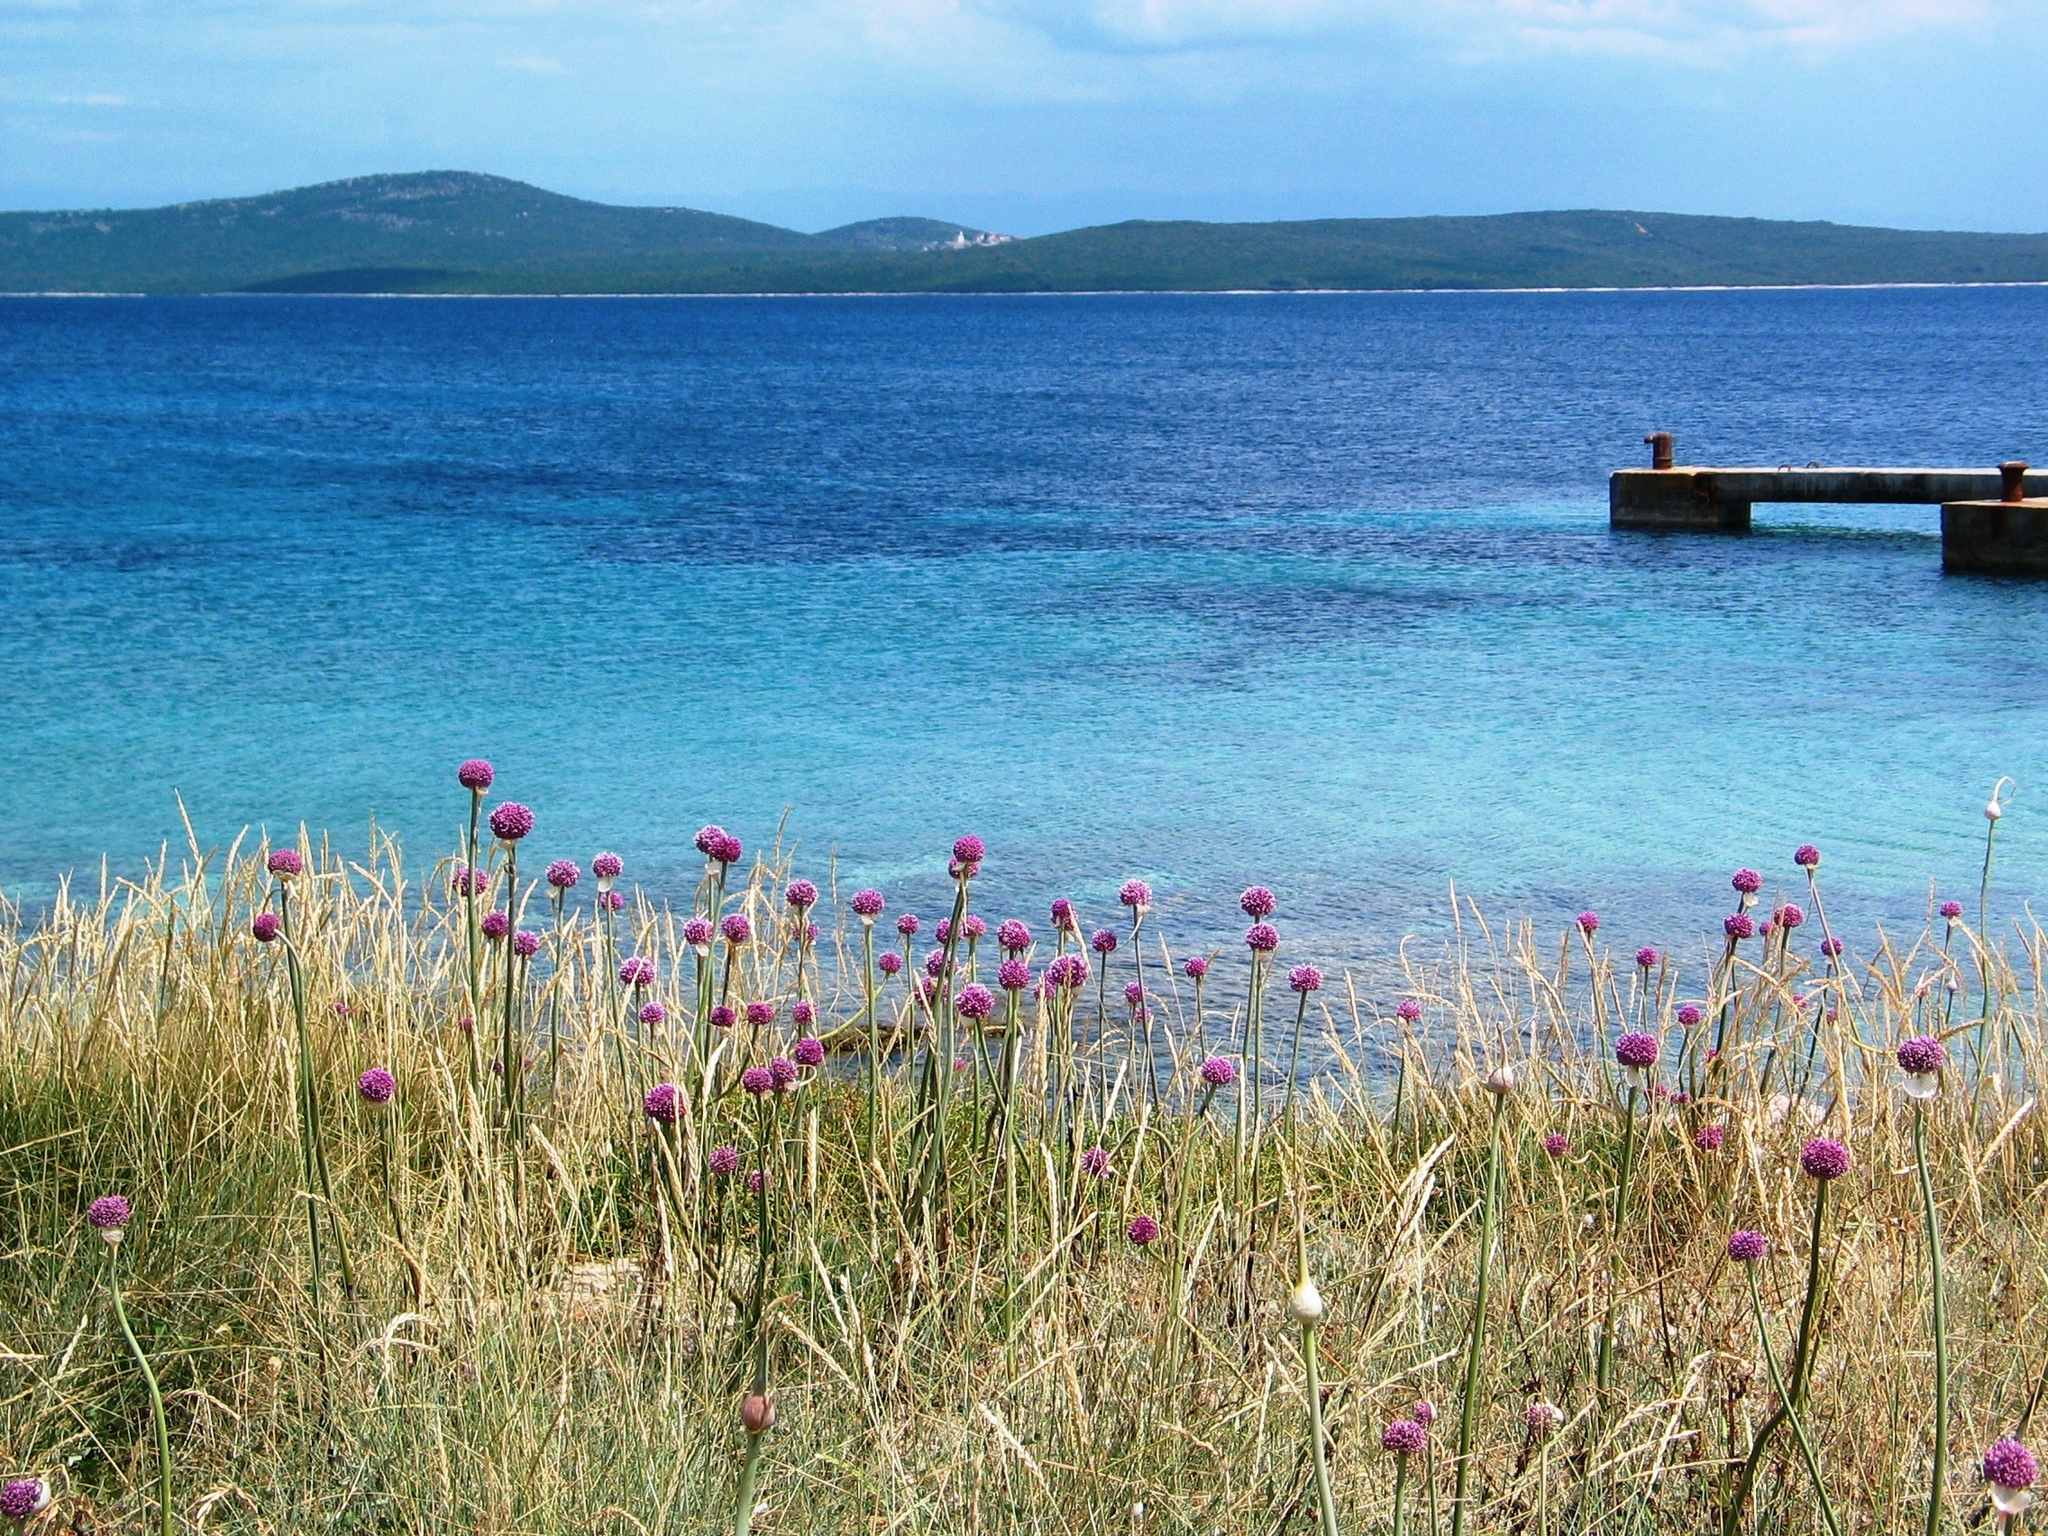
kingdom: Plantae
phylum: Tracheophyta
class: Liliopsida
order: Asparagales
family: Amaryllidaceae
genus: Allium
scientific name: Allium commutatum
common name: Sea garlic
